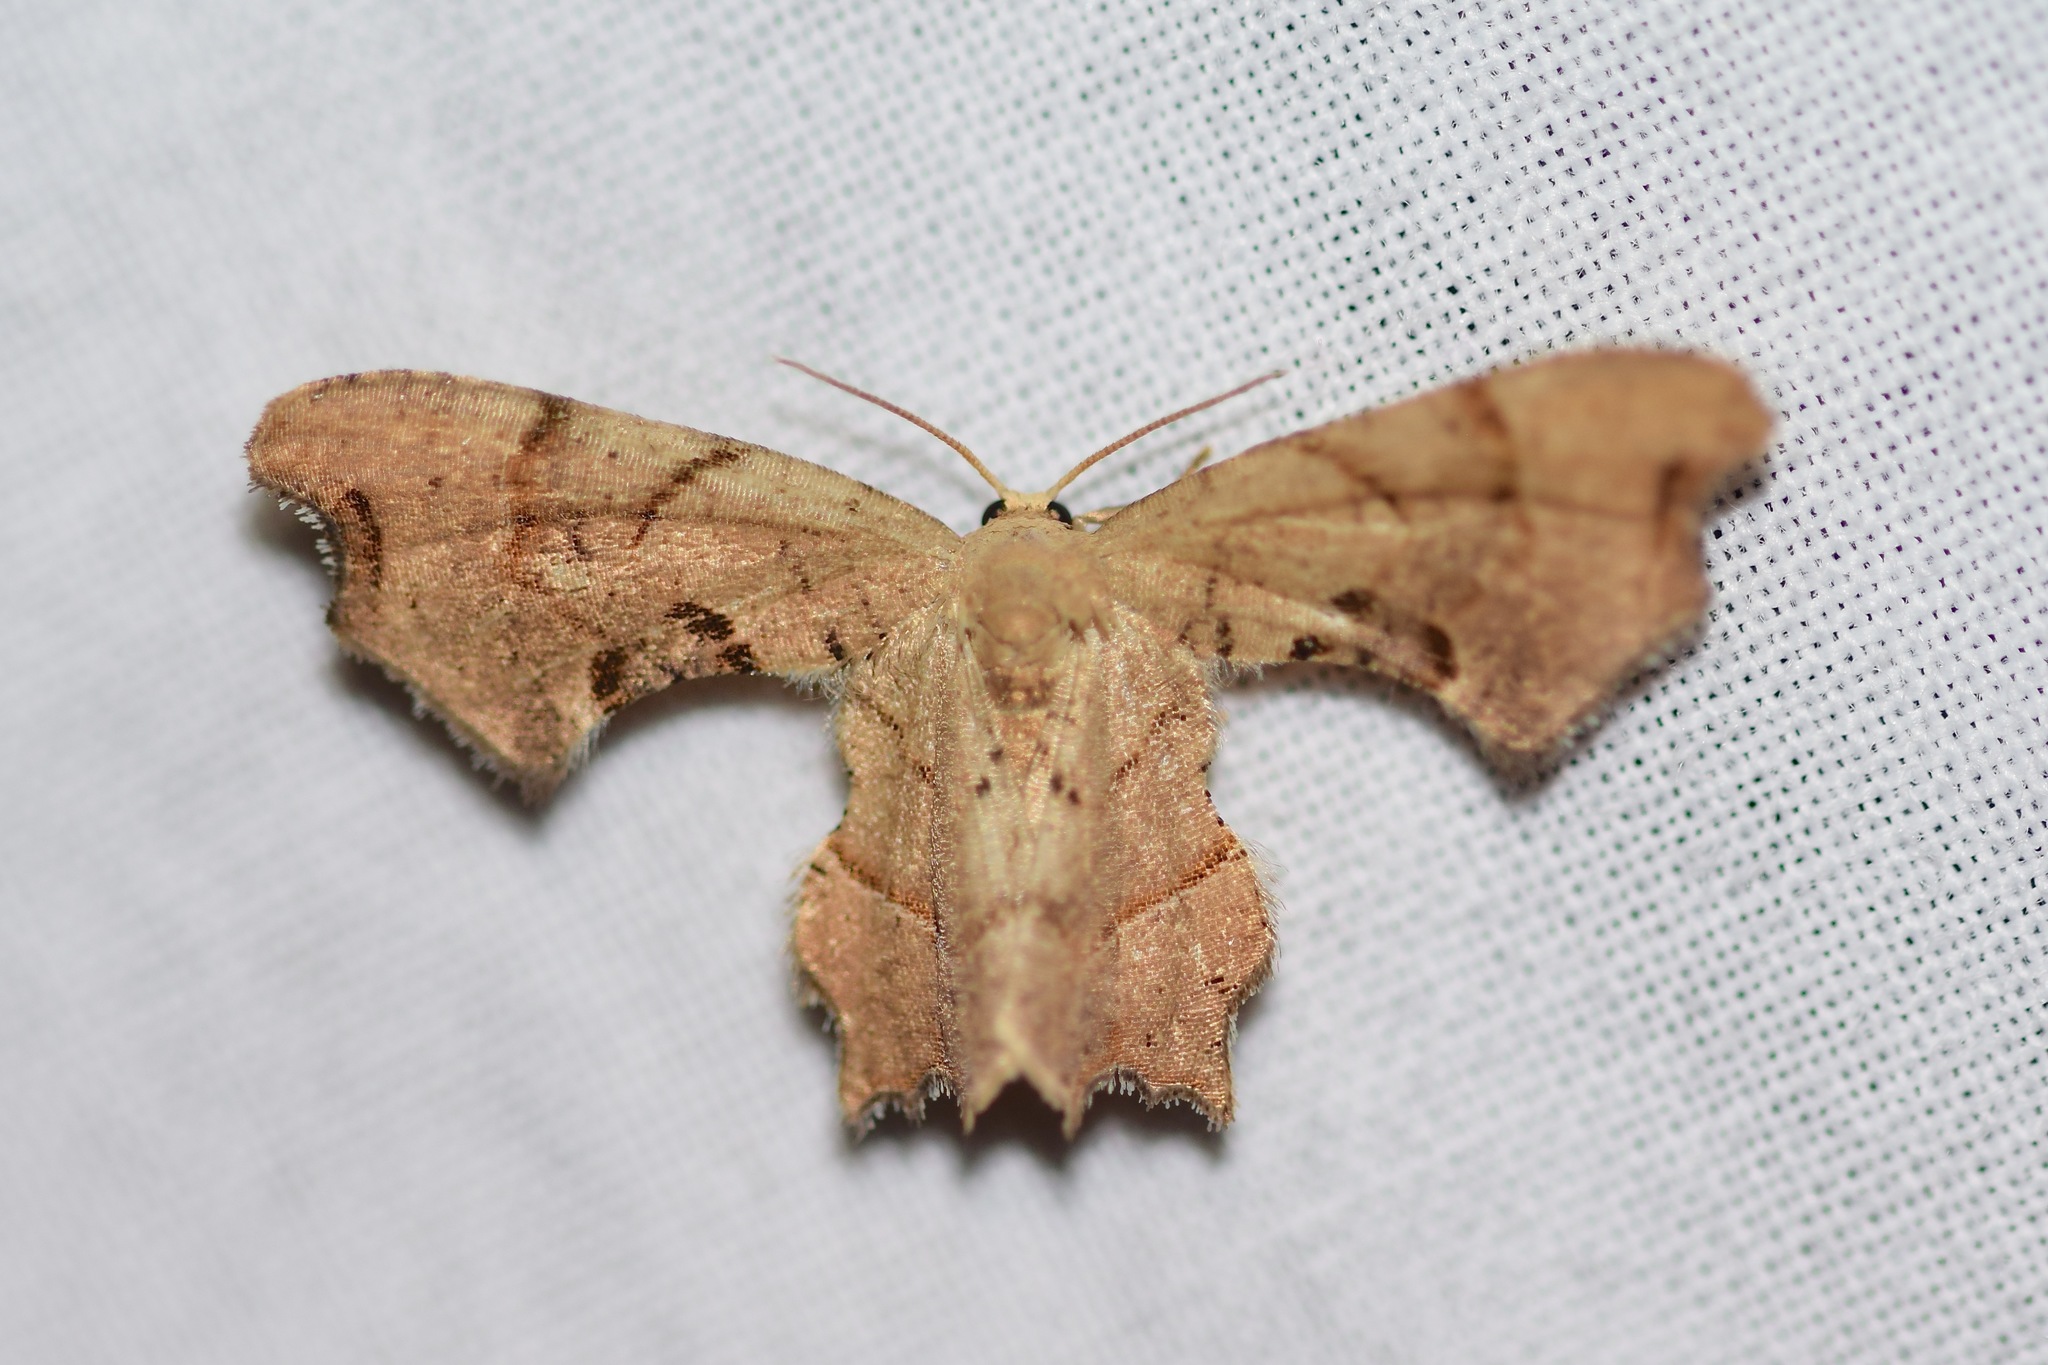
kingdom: Animalia
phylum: Arthropoda
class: Insecta
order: Lepidoptera
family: Uraniidae
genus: Epiplema
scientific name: Epiplema Calledapteryx dryopterata
